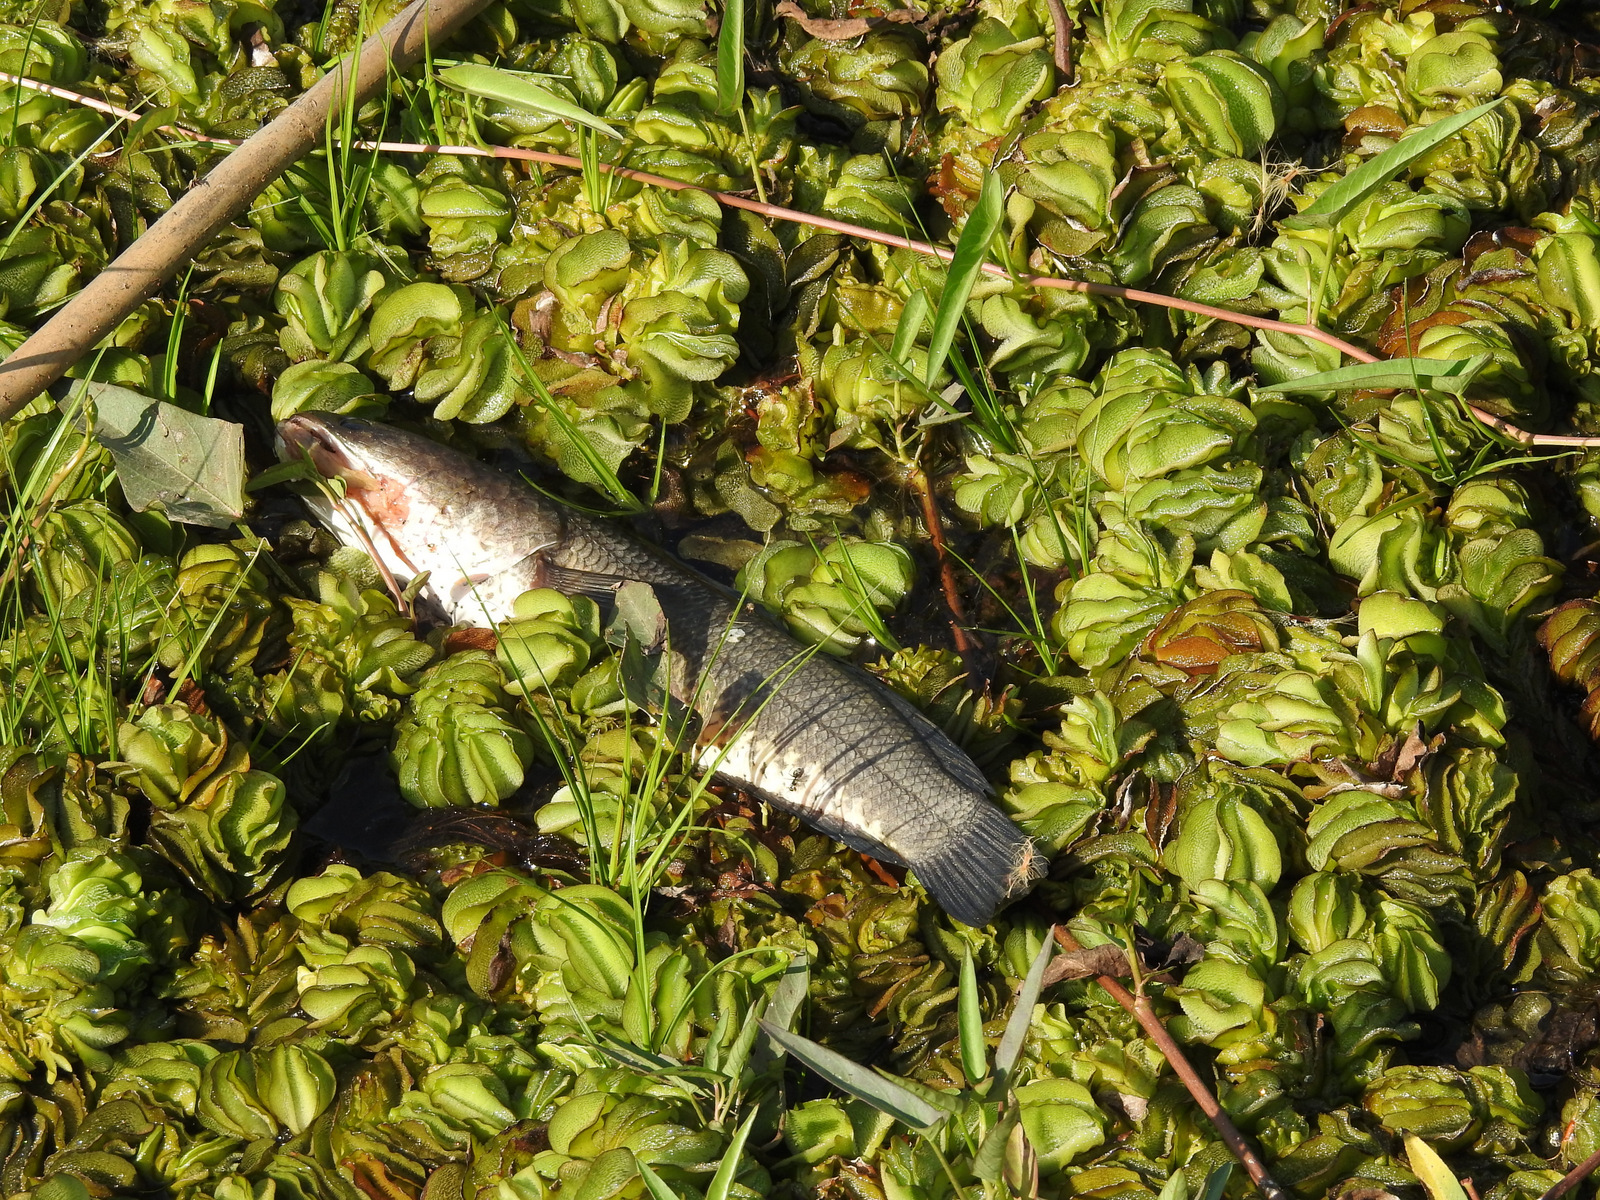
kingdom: Animalia
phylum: Chordata
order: Perciformes
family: Channidae
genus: Channa
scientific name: Channa striata
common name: Striped snakehead
